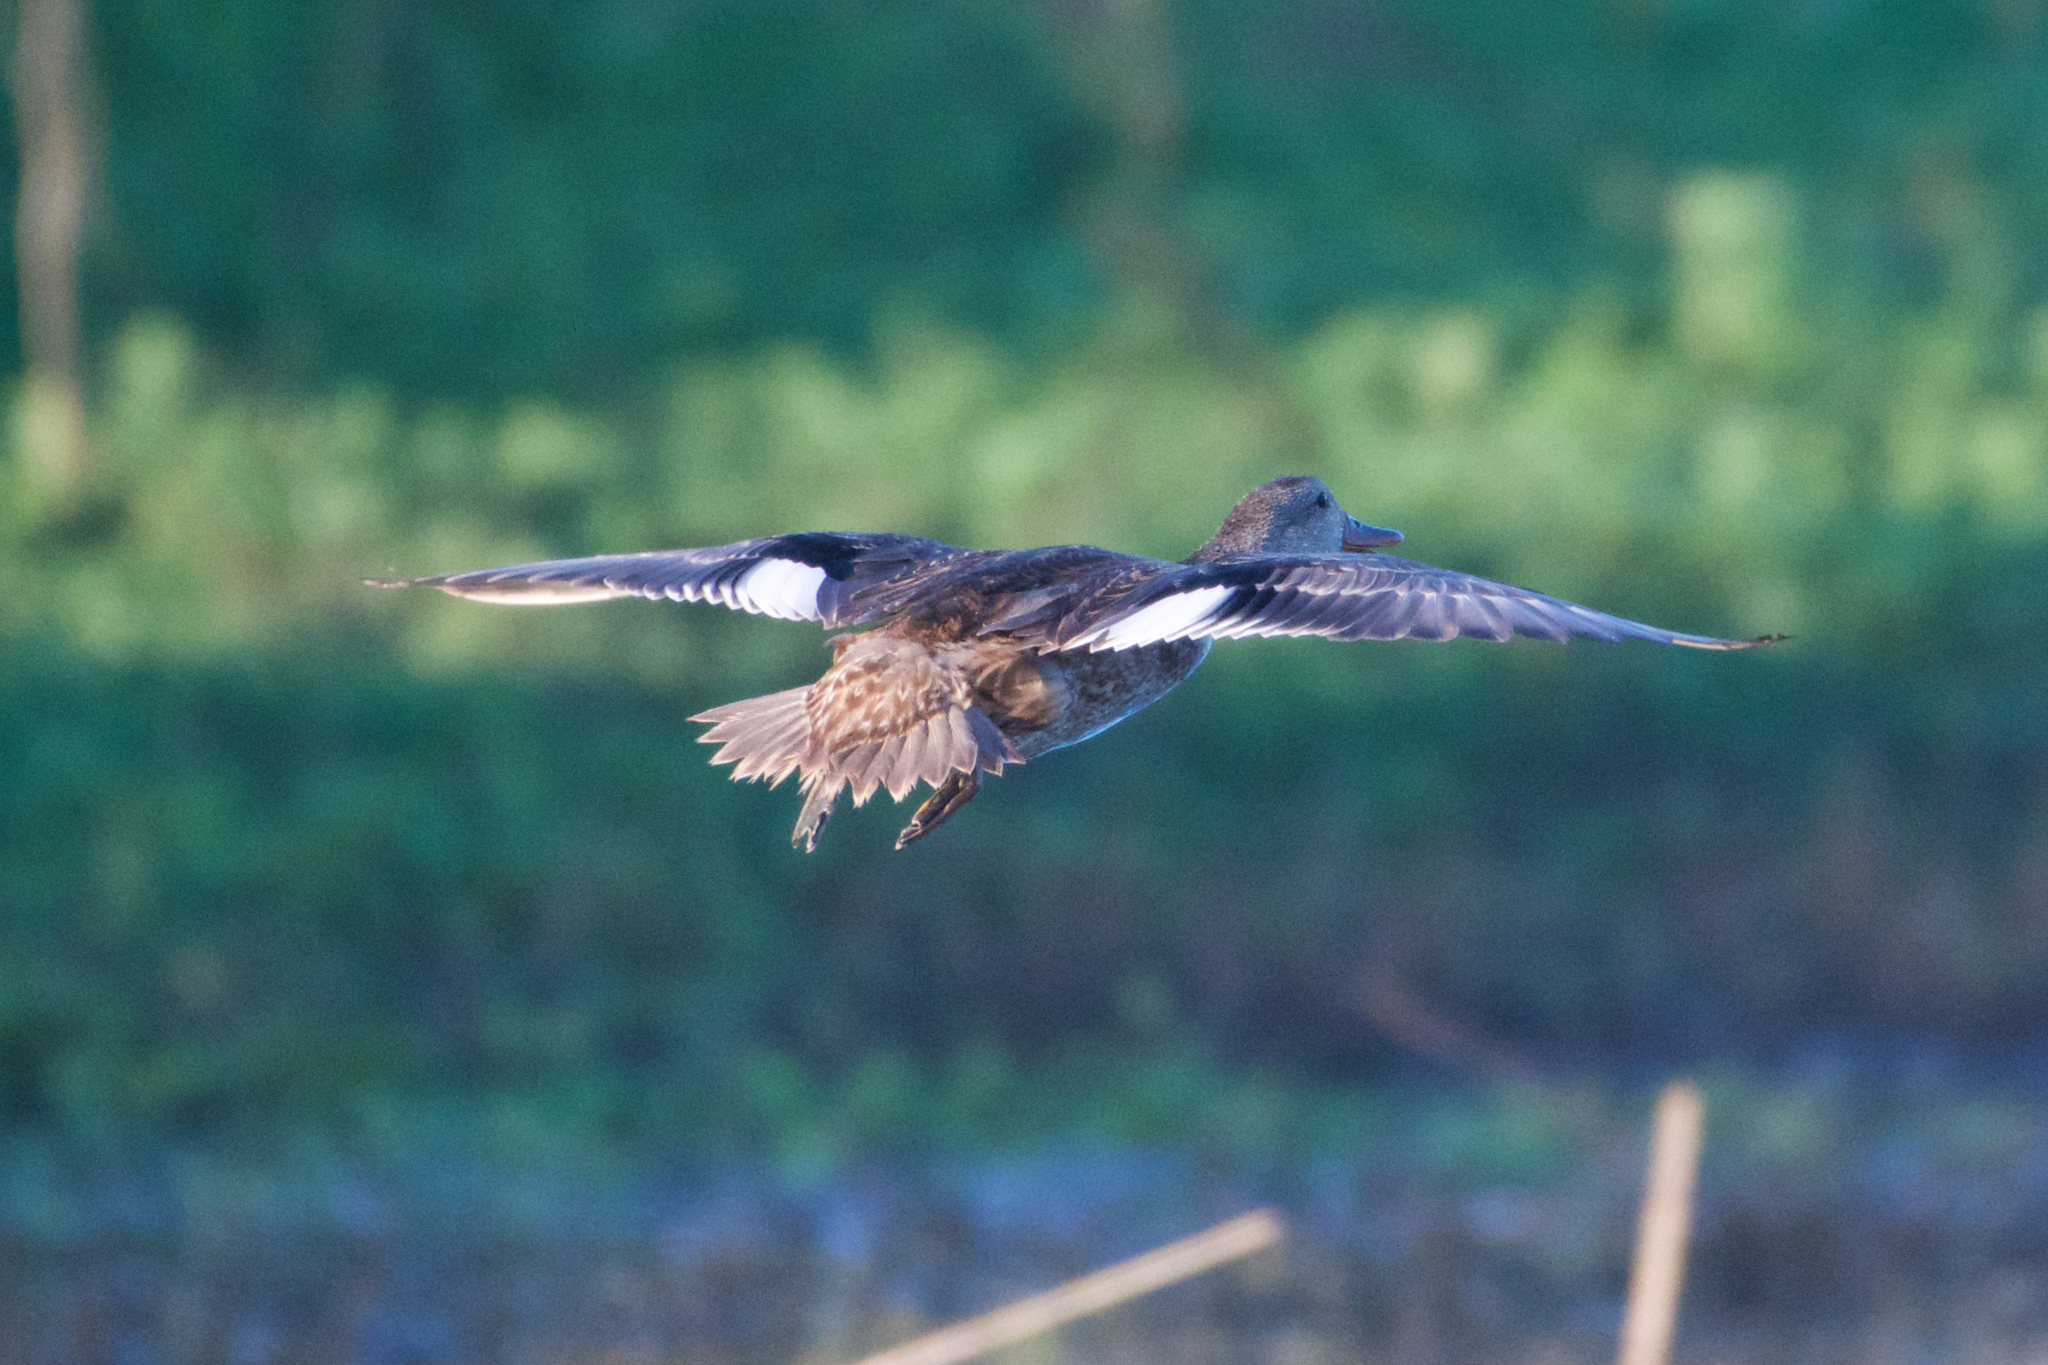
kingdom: Animalia
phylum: Chordata
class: Aves
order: Anseriformes
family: Anatidae
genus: Mareca
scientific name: Mareca strepera
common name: Gadwall
